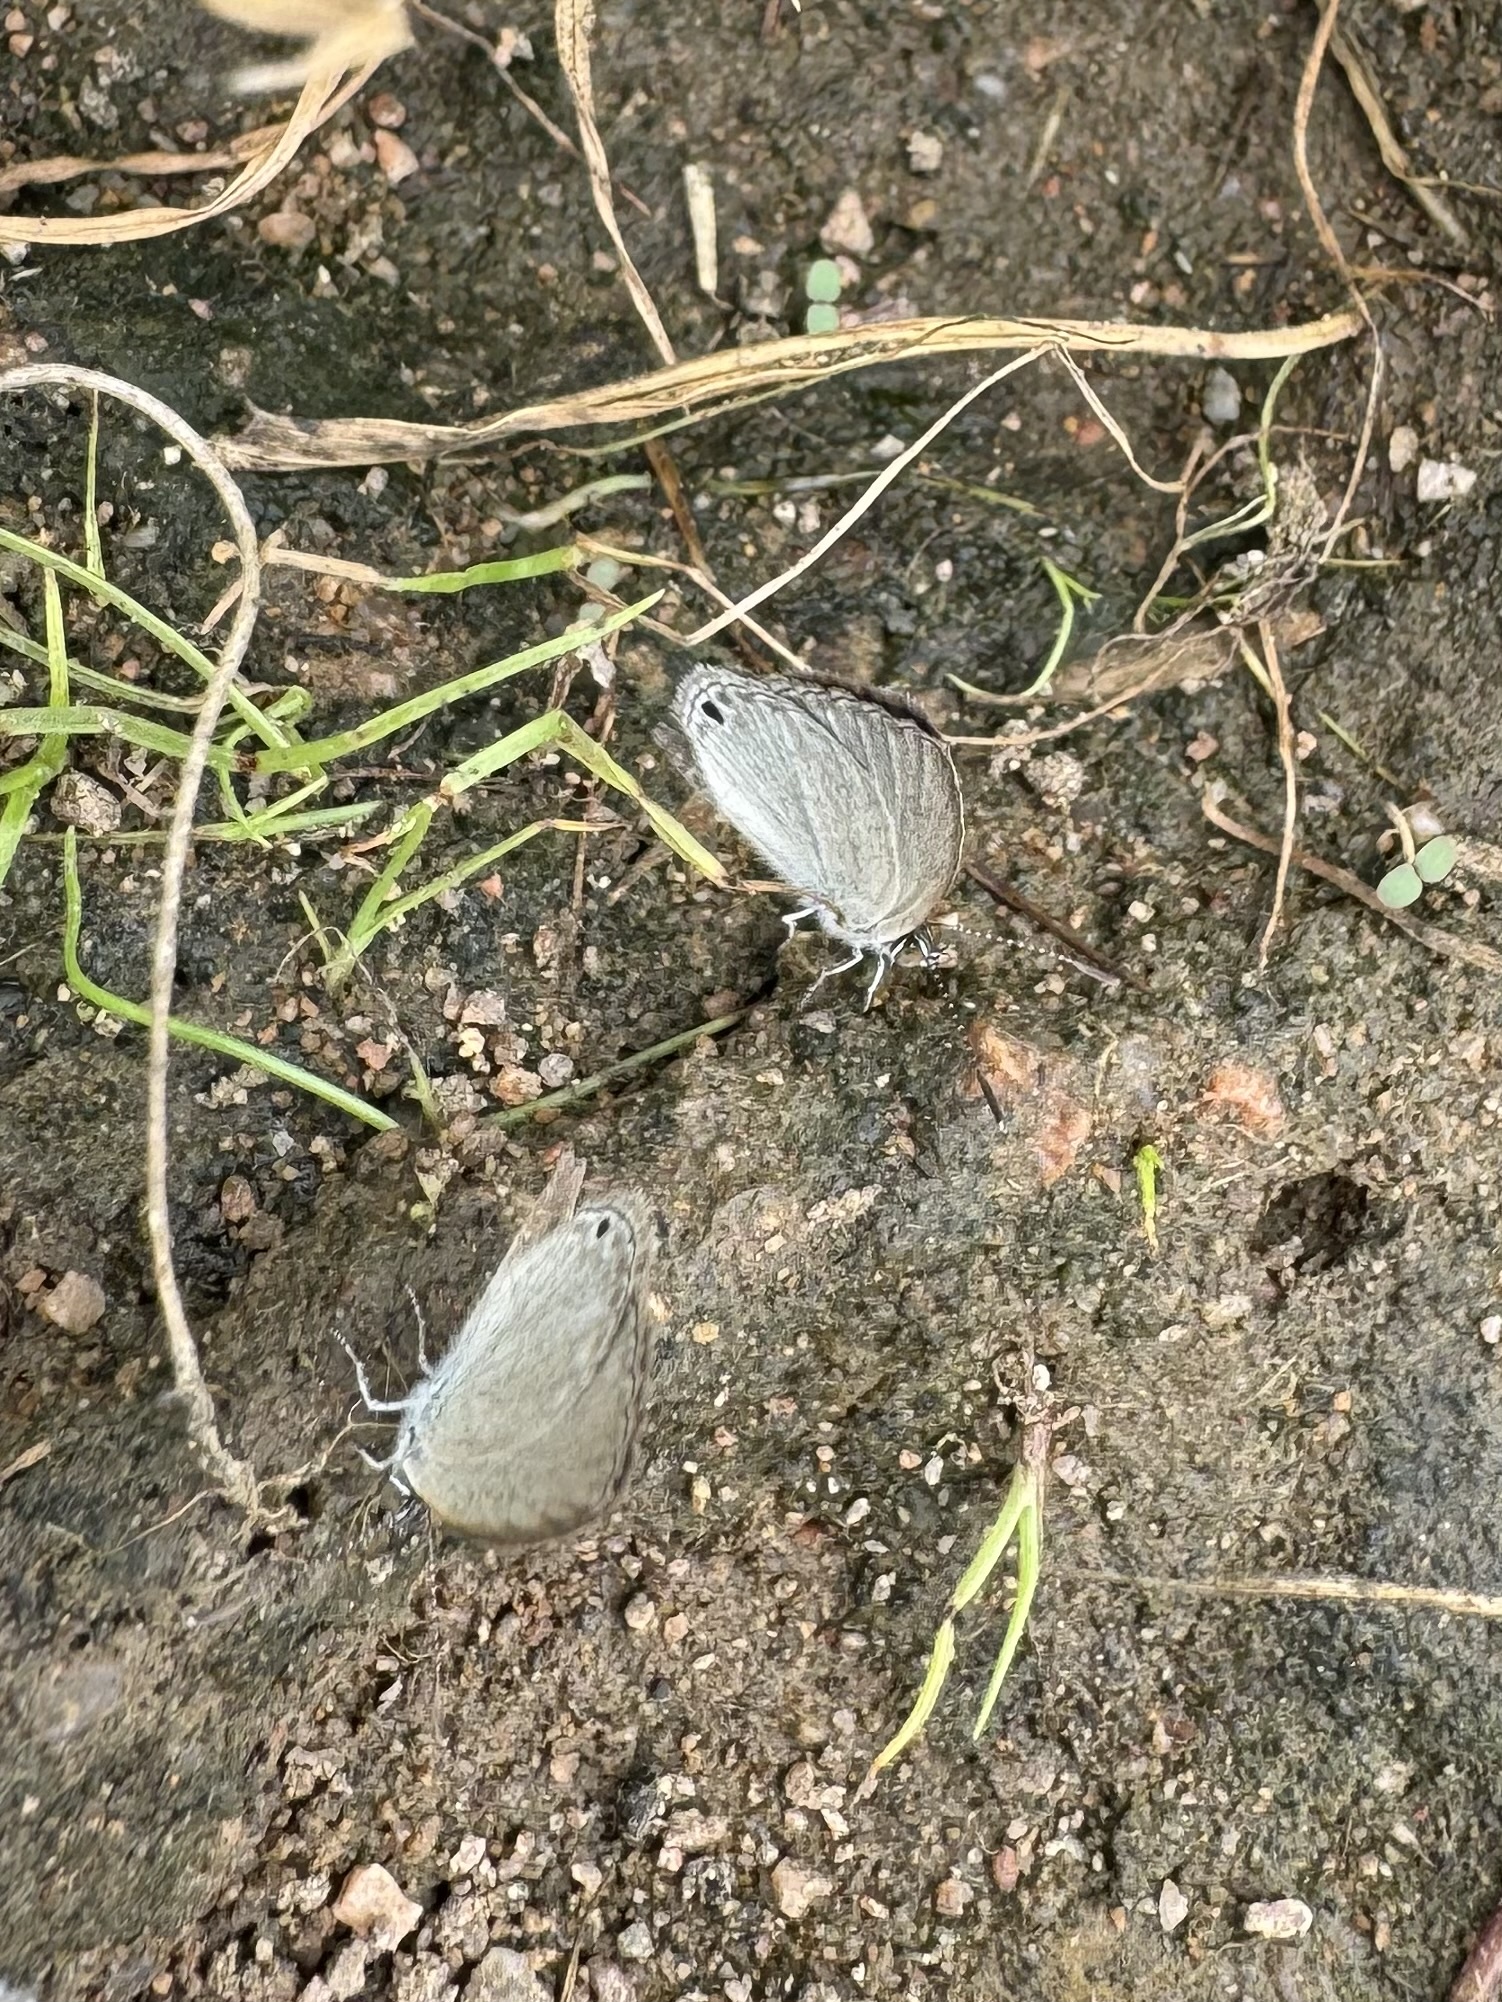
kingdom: Animalia
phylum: Arthropoda
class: Insecta
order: Lepidoptera
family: Lycaenidae
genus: Cupido
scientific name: Cupido nisa
